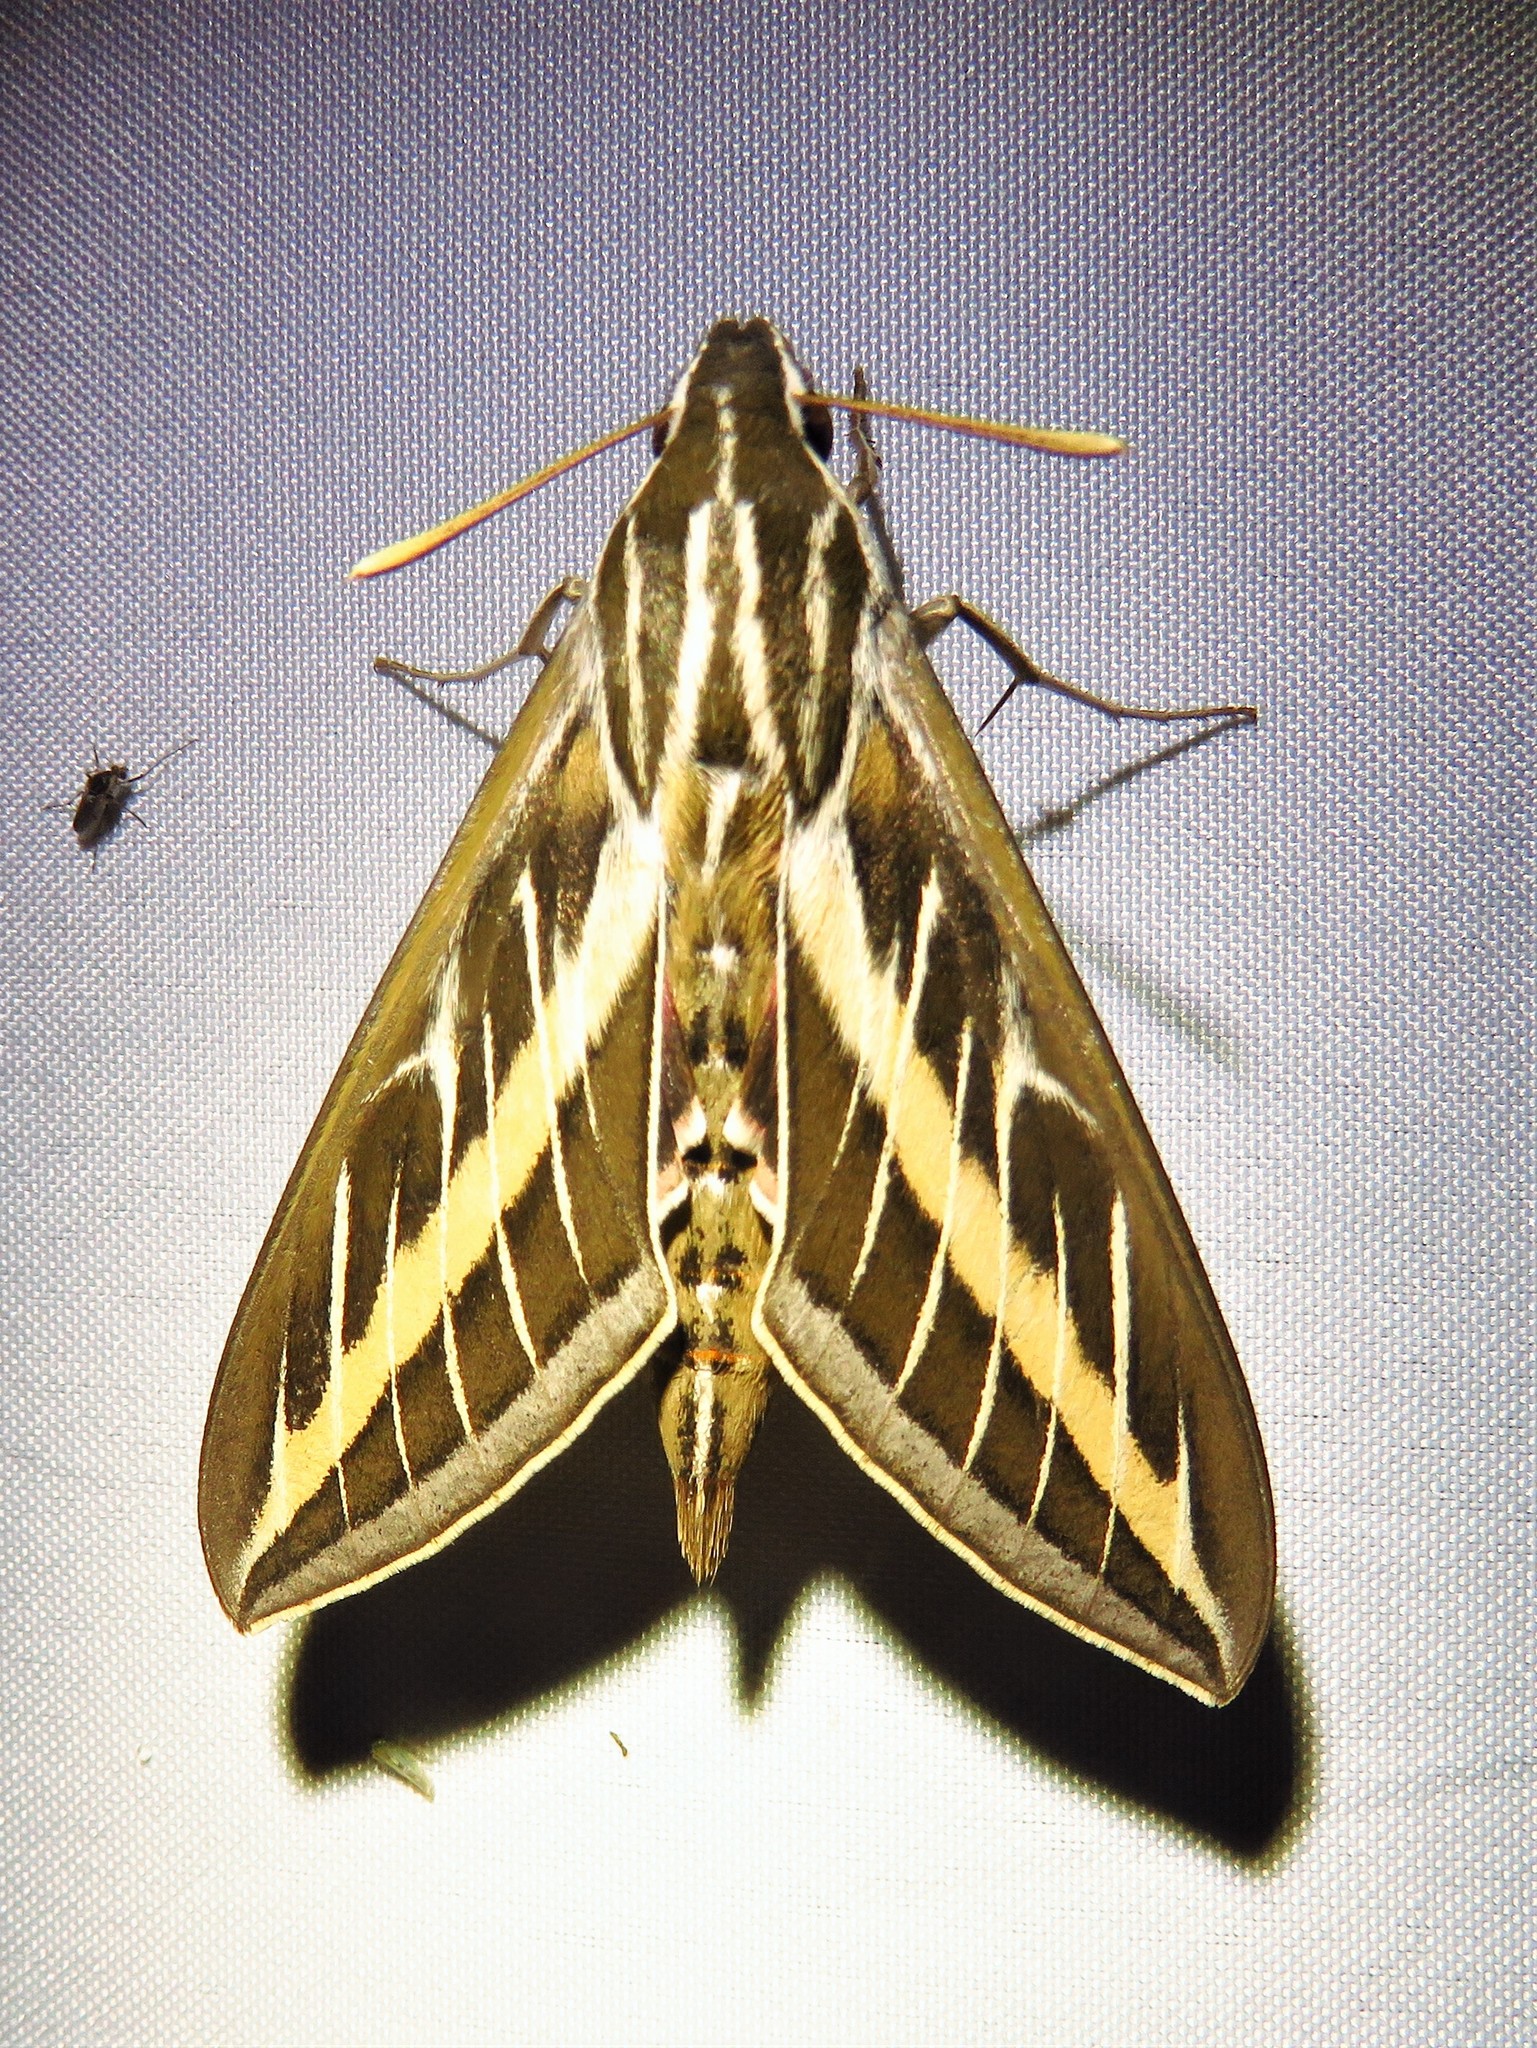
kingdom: Animalia
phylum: Arthropoda
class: Insecta
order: Lepidoptera
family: Sphingidae
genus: Hyles
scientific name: Hyles lineata
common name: White-lined sphinx
